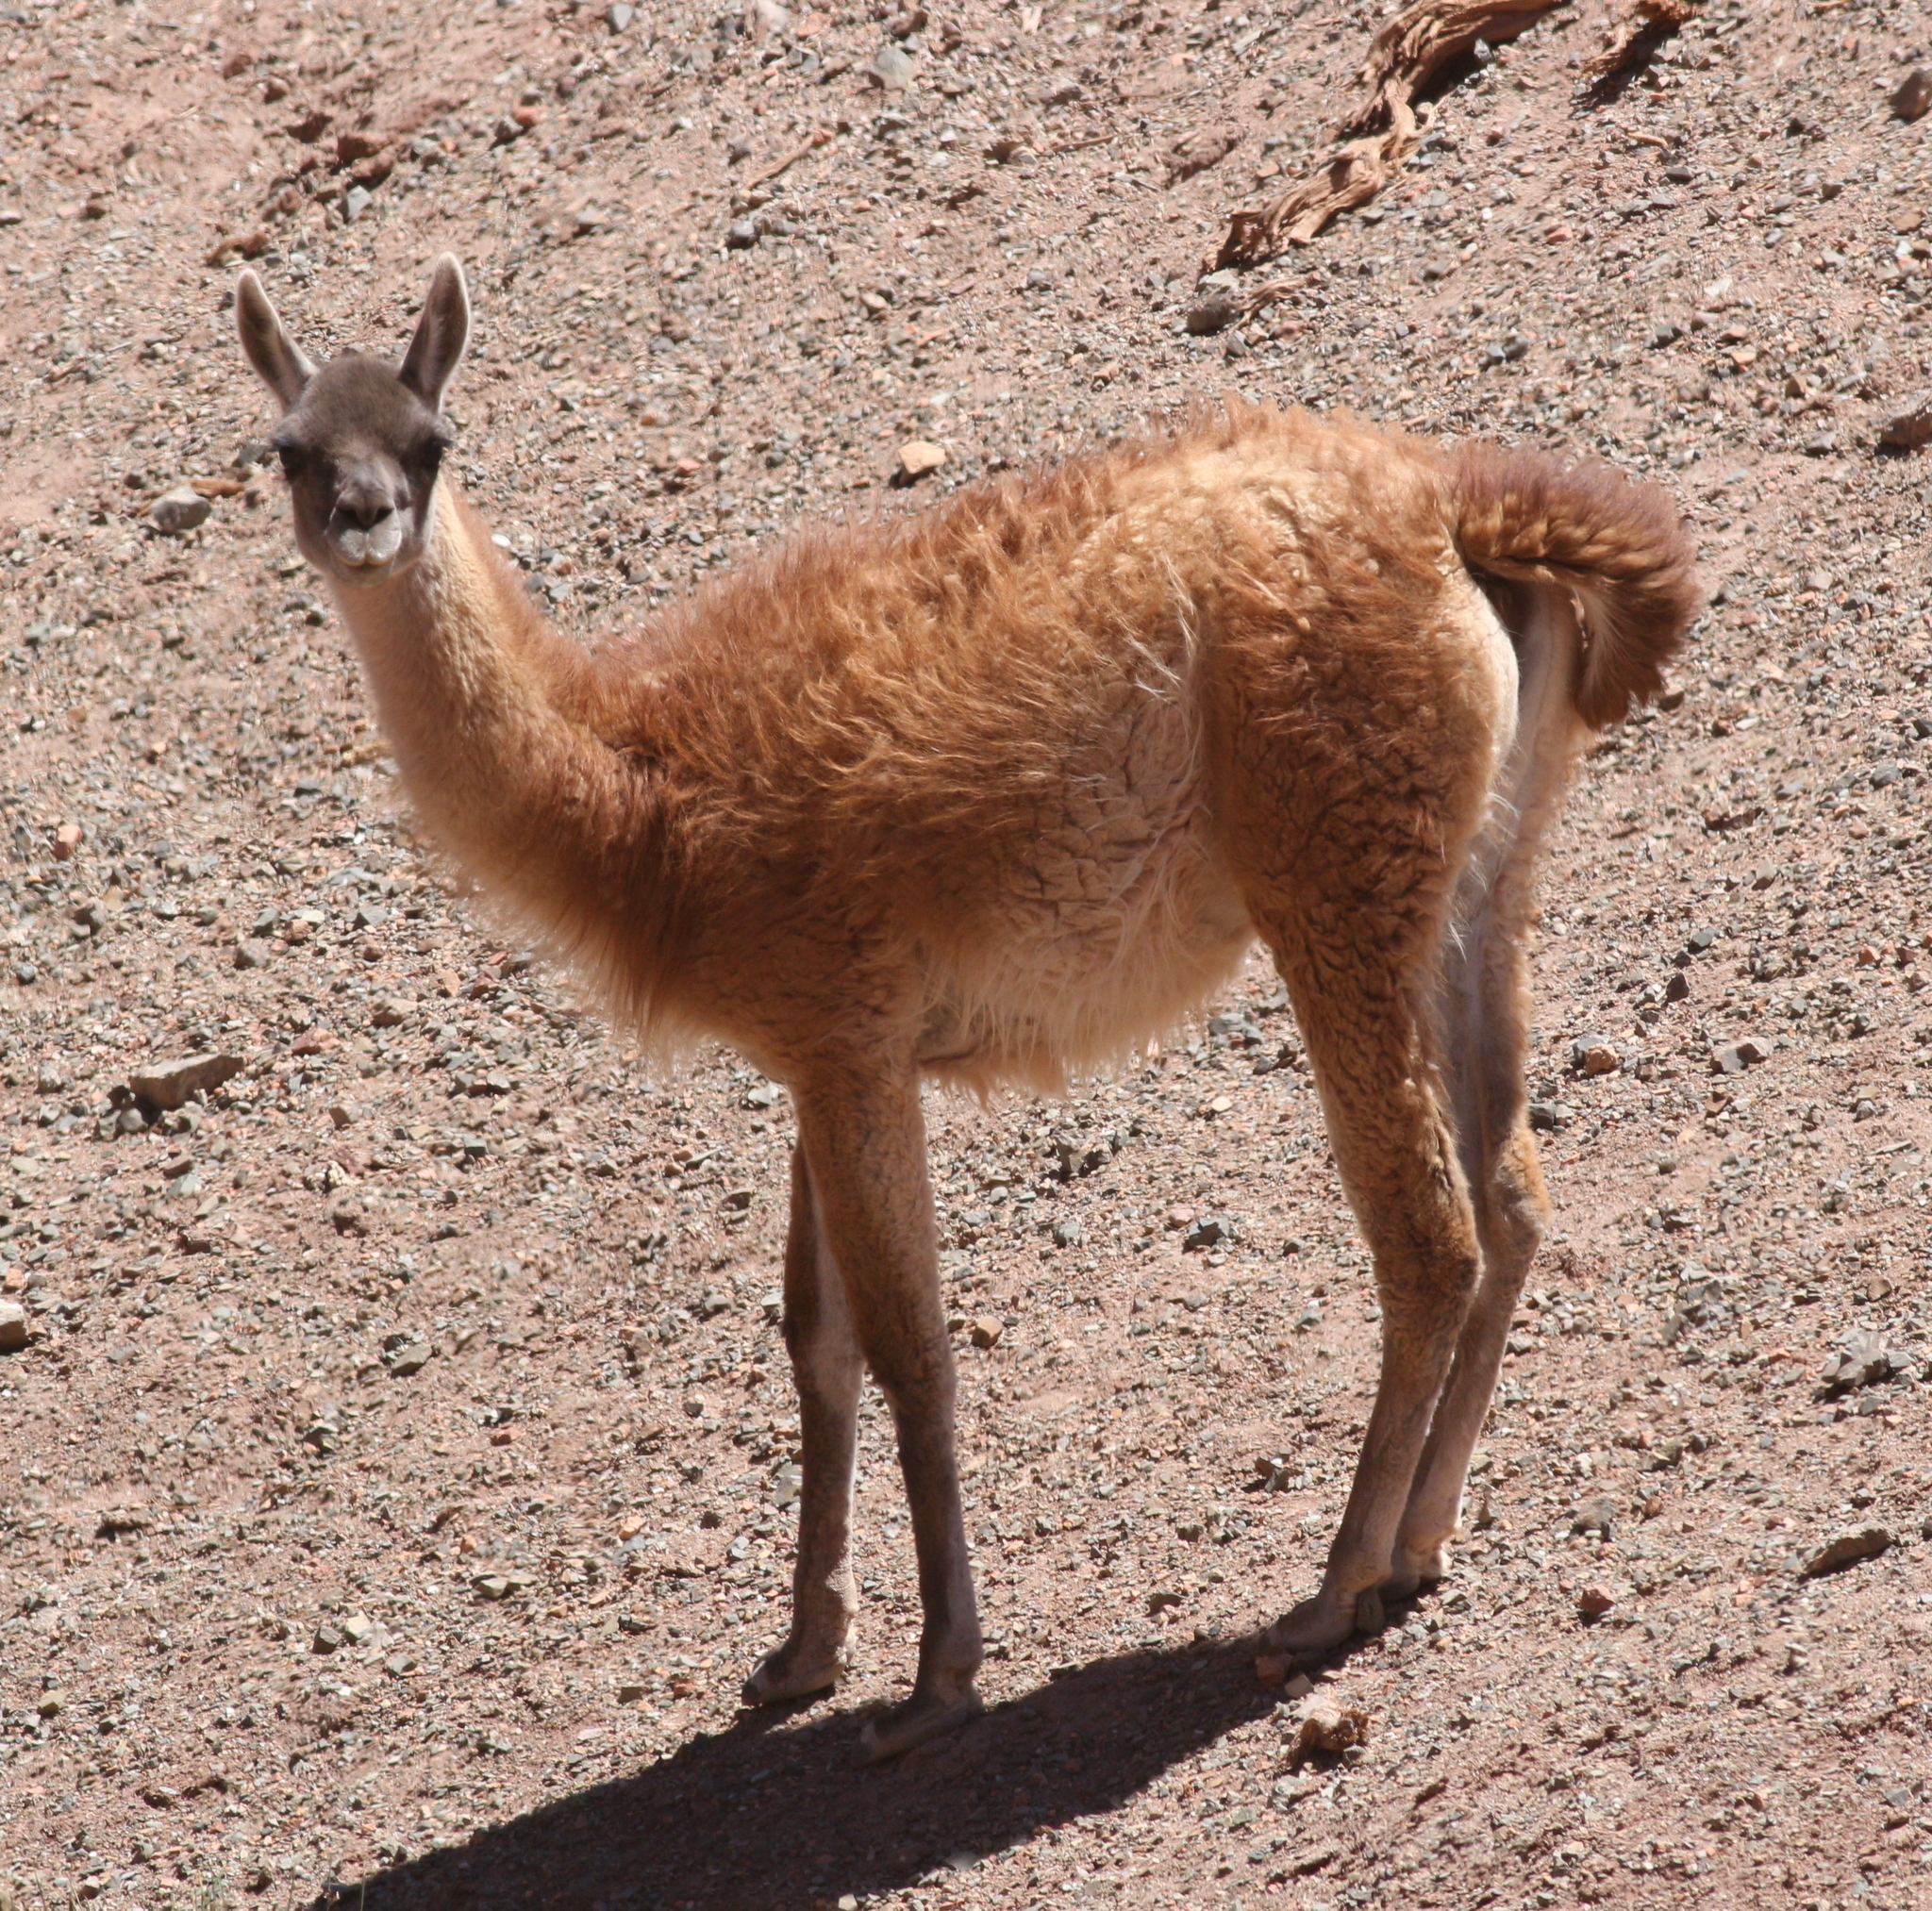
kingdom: Animalia
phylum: Chordata
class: Mammalia
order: Artiodactyla
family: Camelidae
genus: Lama
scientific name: Lama glama
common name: Llama
